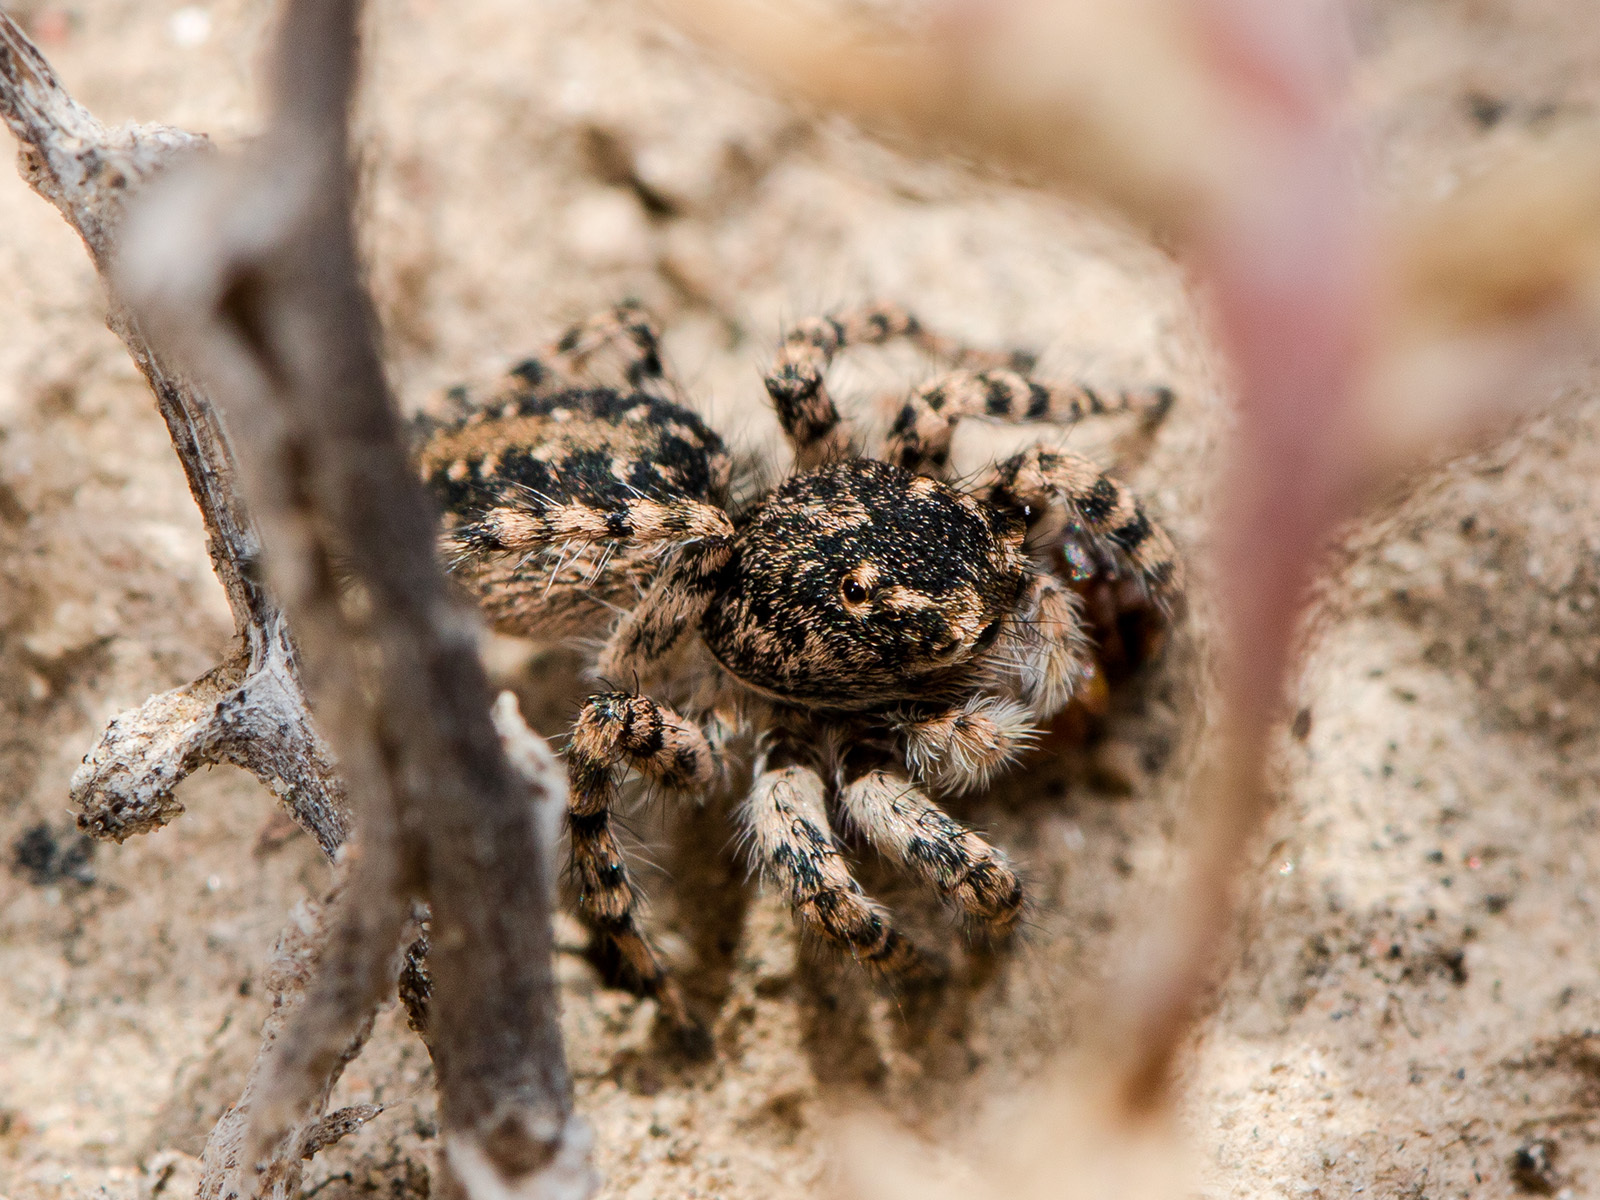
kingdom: Animalia
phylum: Arthropoda
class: Arachnida
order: Araneae
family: Salticidae
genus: Aelurillus
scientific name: Aelurillus dubatolovi
